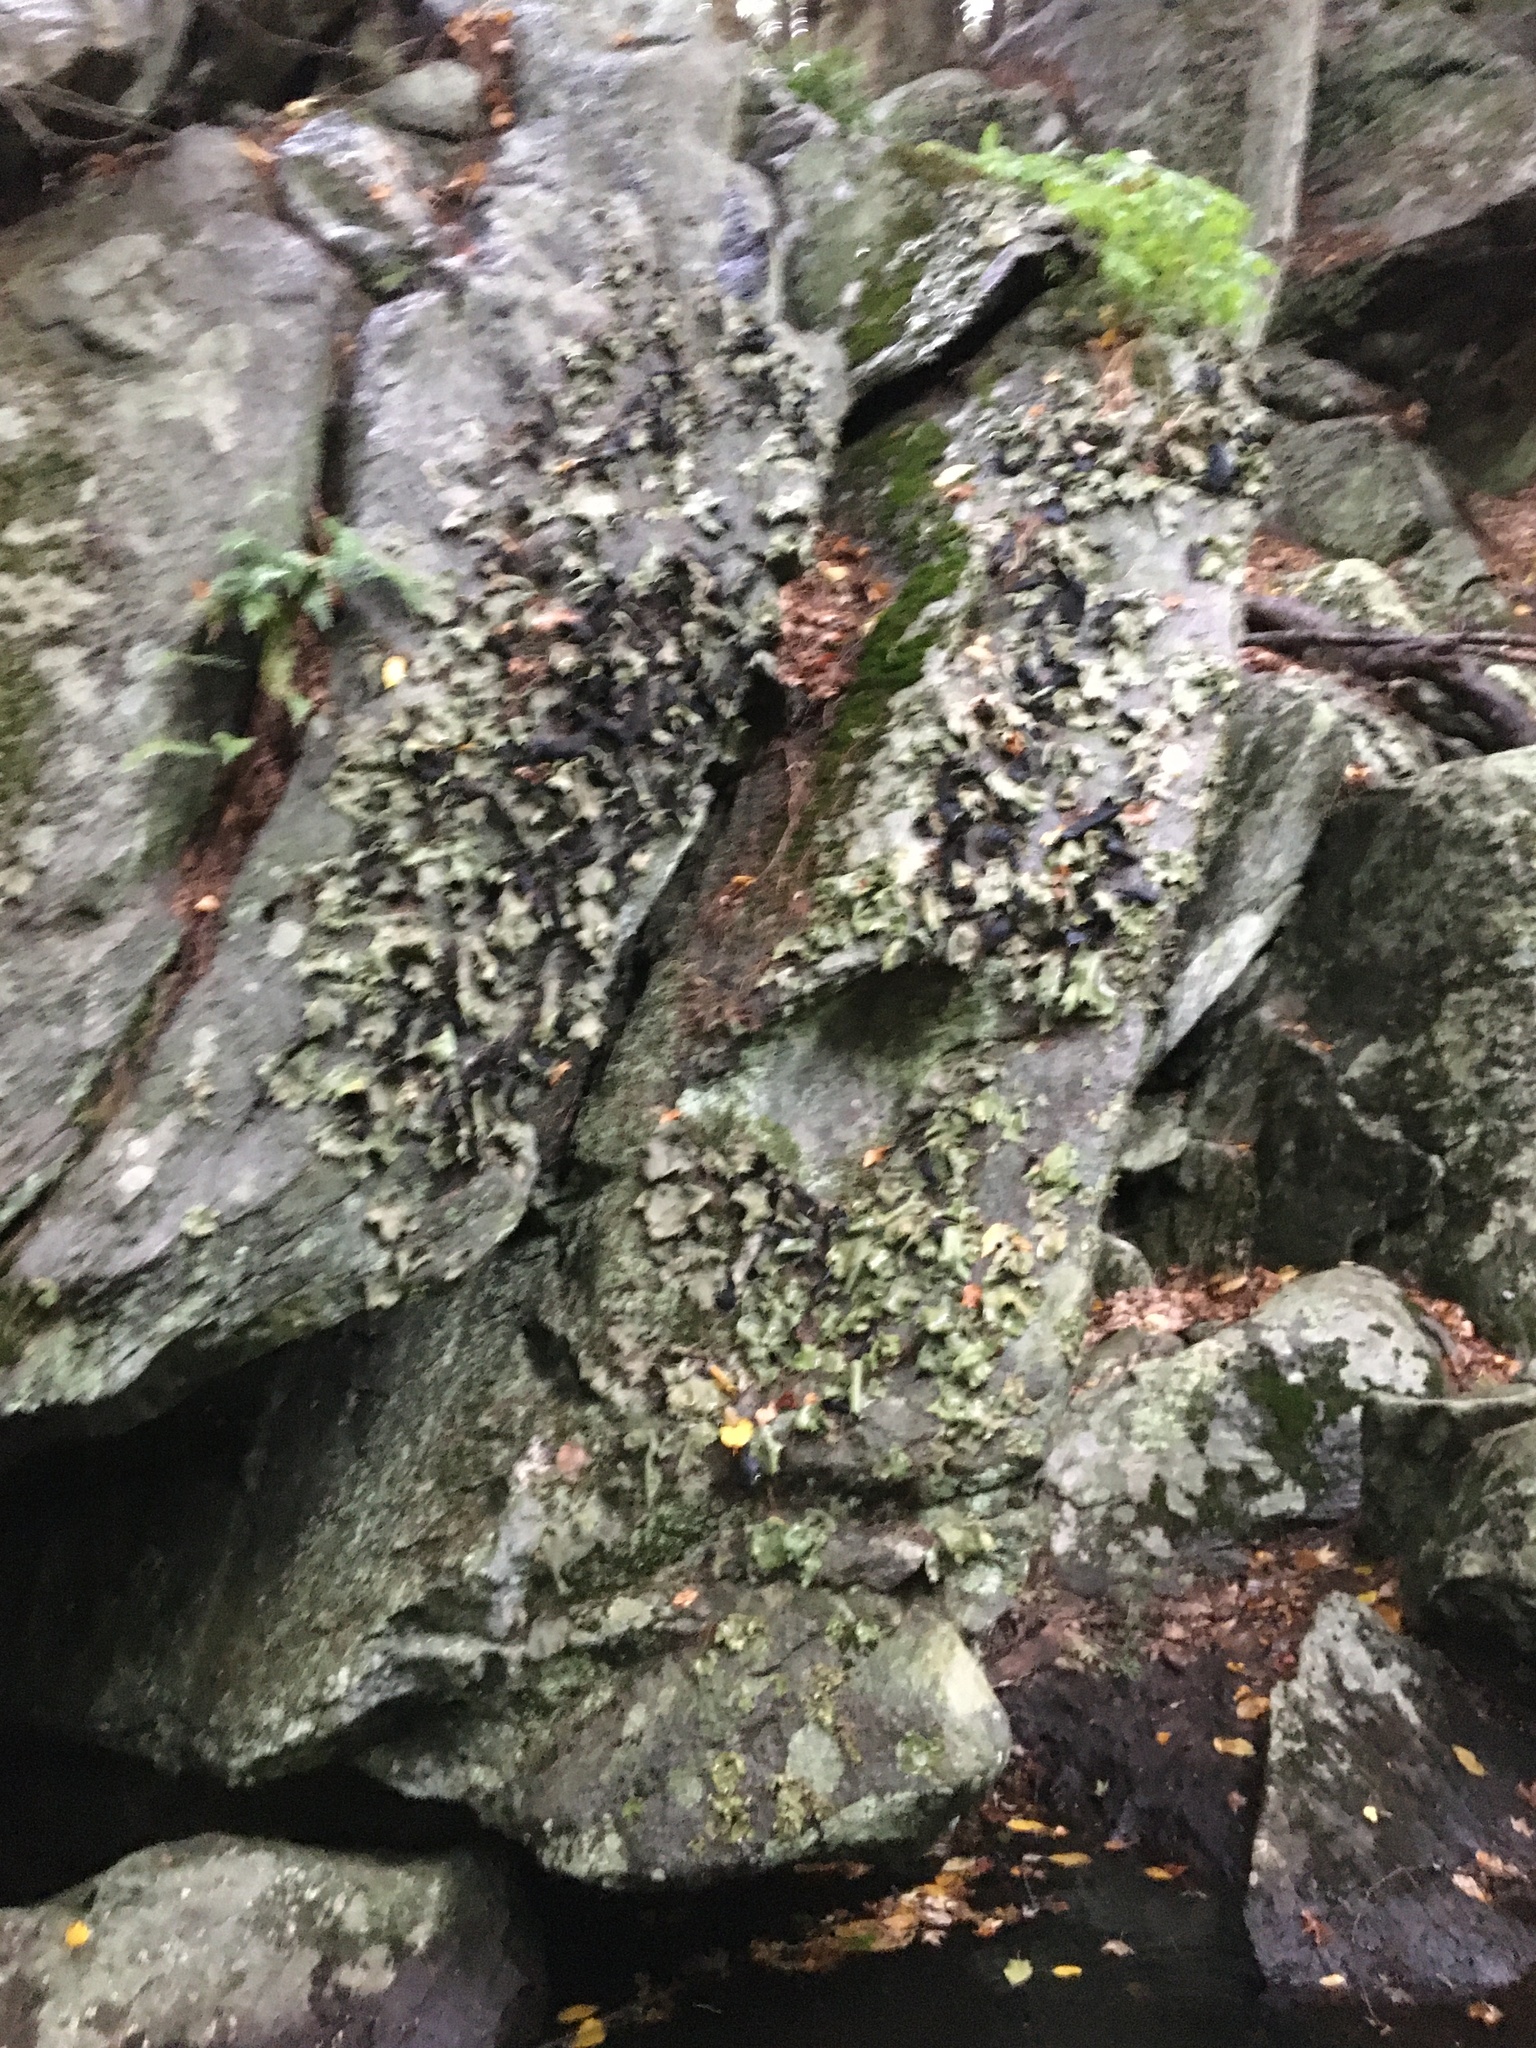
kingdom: Fungi
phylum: Ascomycota
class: Lecanoromycetes
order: Umbilicariales
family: Umbilicariaceae
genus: Umbilicaria
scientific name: Umbilicaria mammulata
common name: Smooth rock tripe
